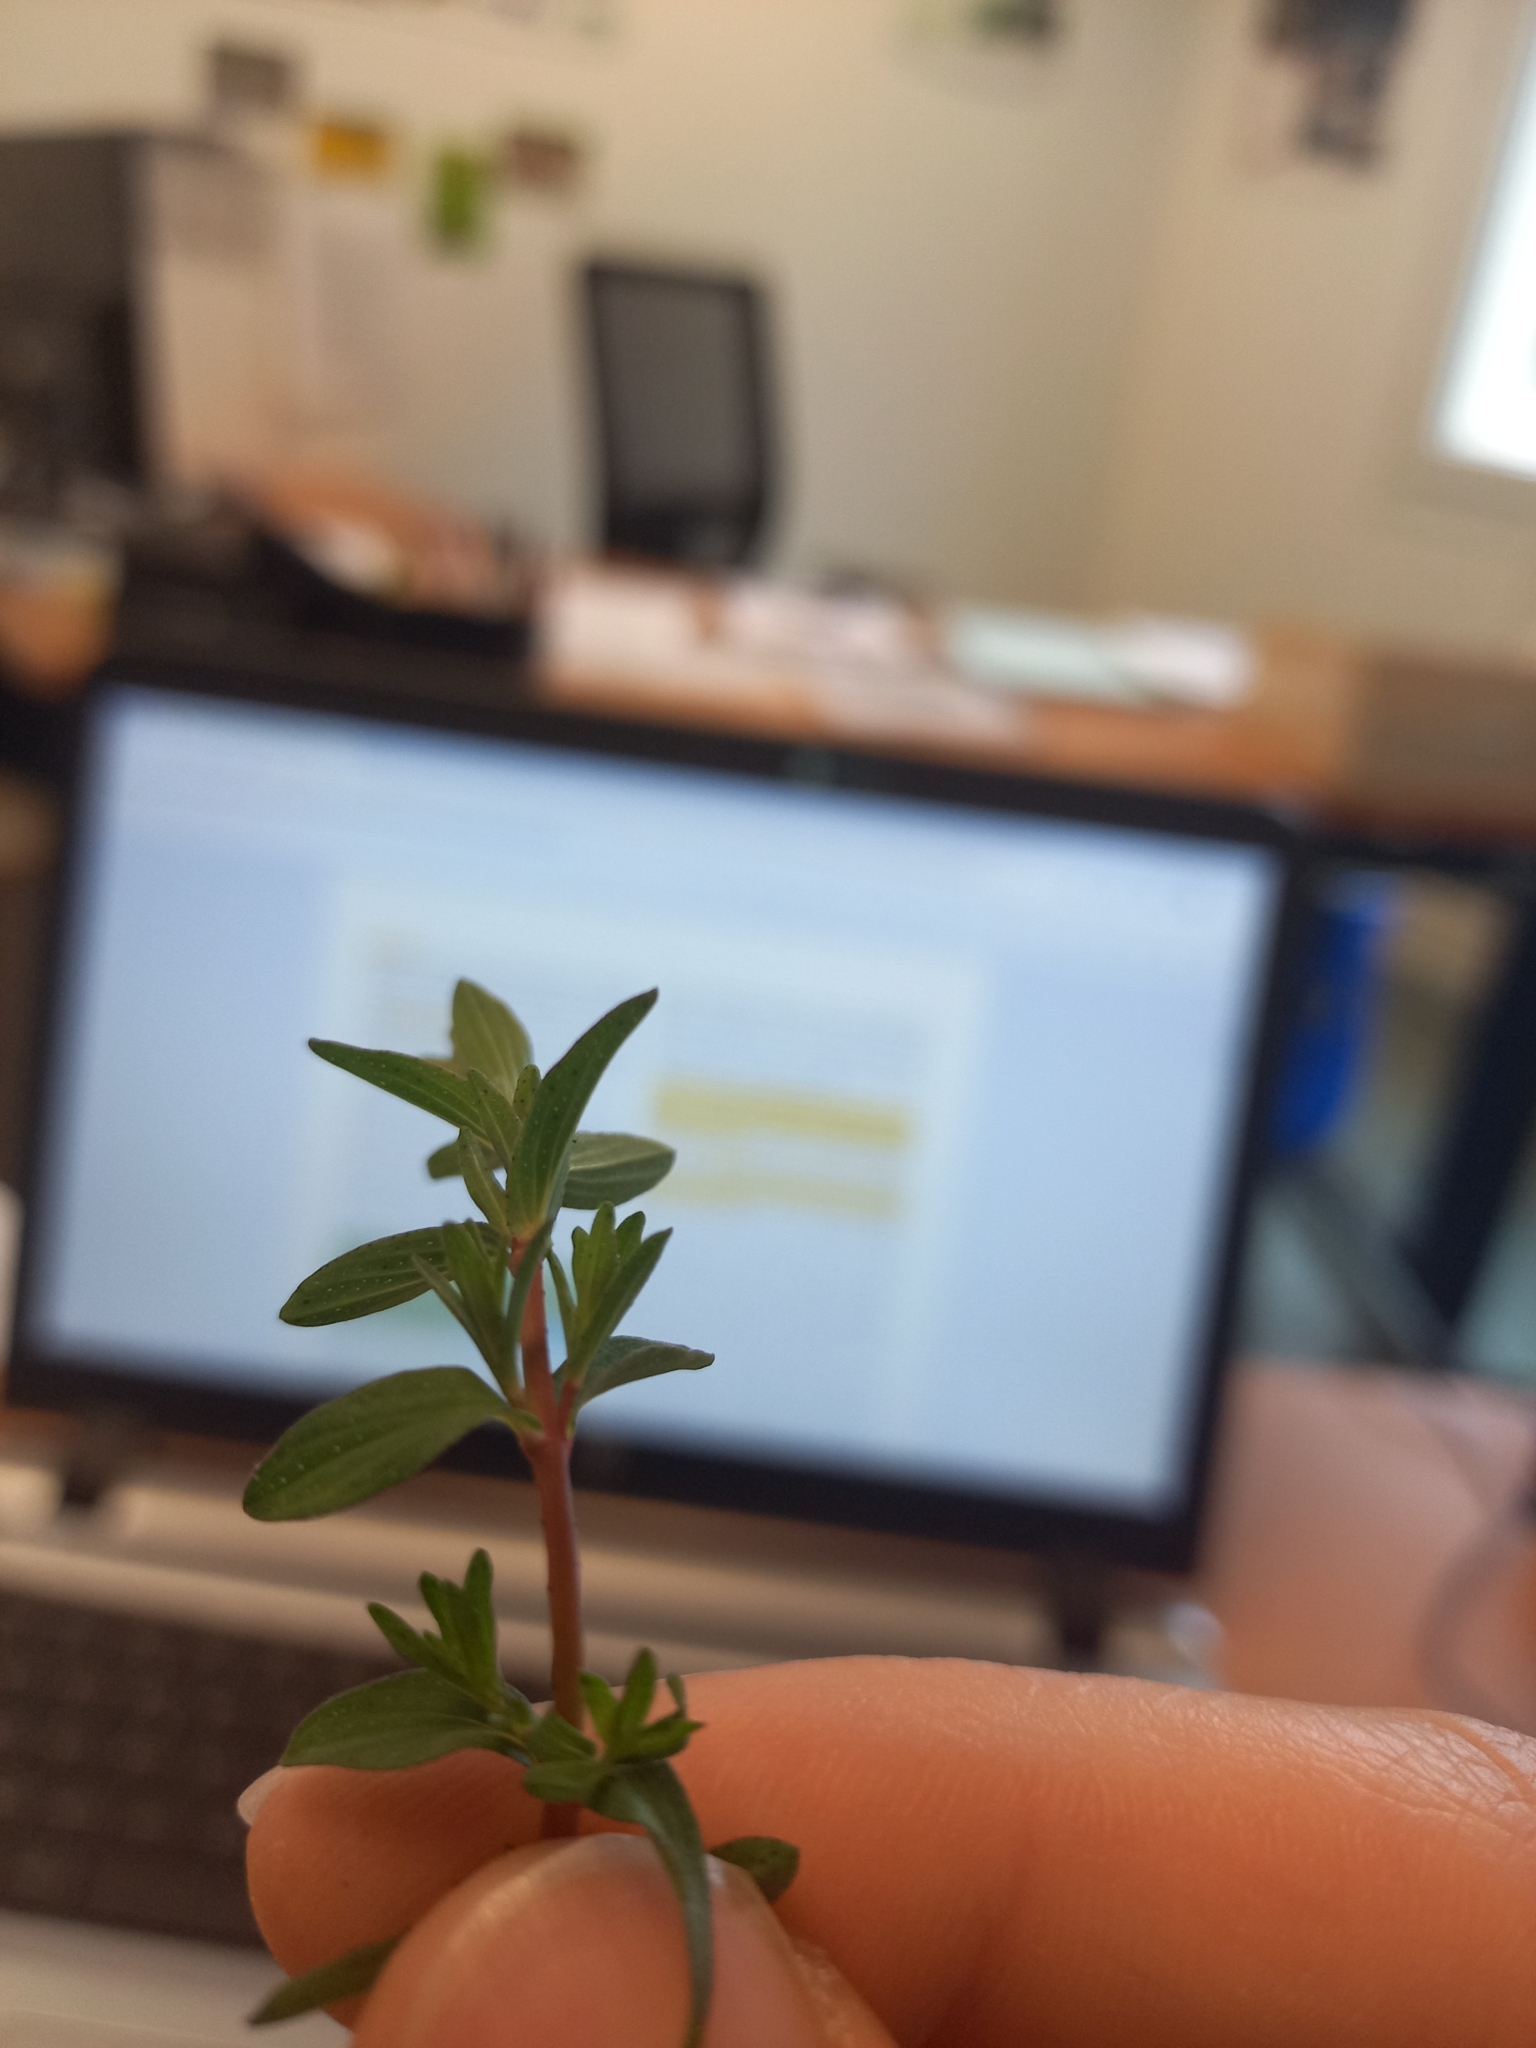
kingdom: Plantae
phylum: Tracheophyta
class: Magnoliopsida
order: Malpighiales
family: Hypericaceae
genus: Hypericum
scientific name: Hypericum perforatum
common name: Common st. johnswort
